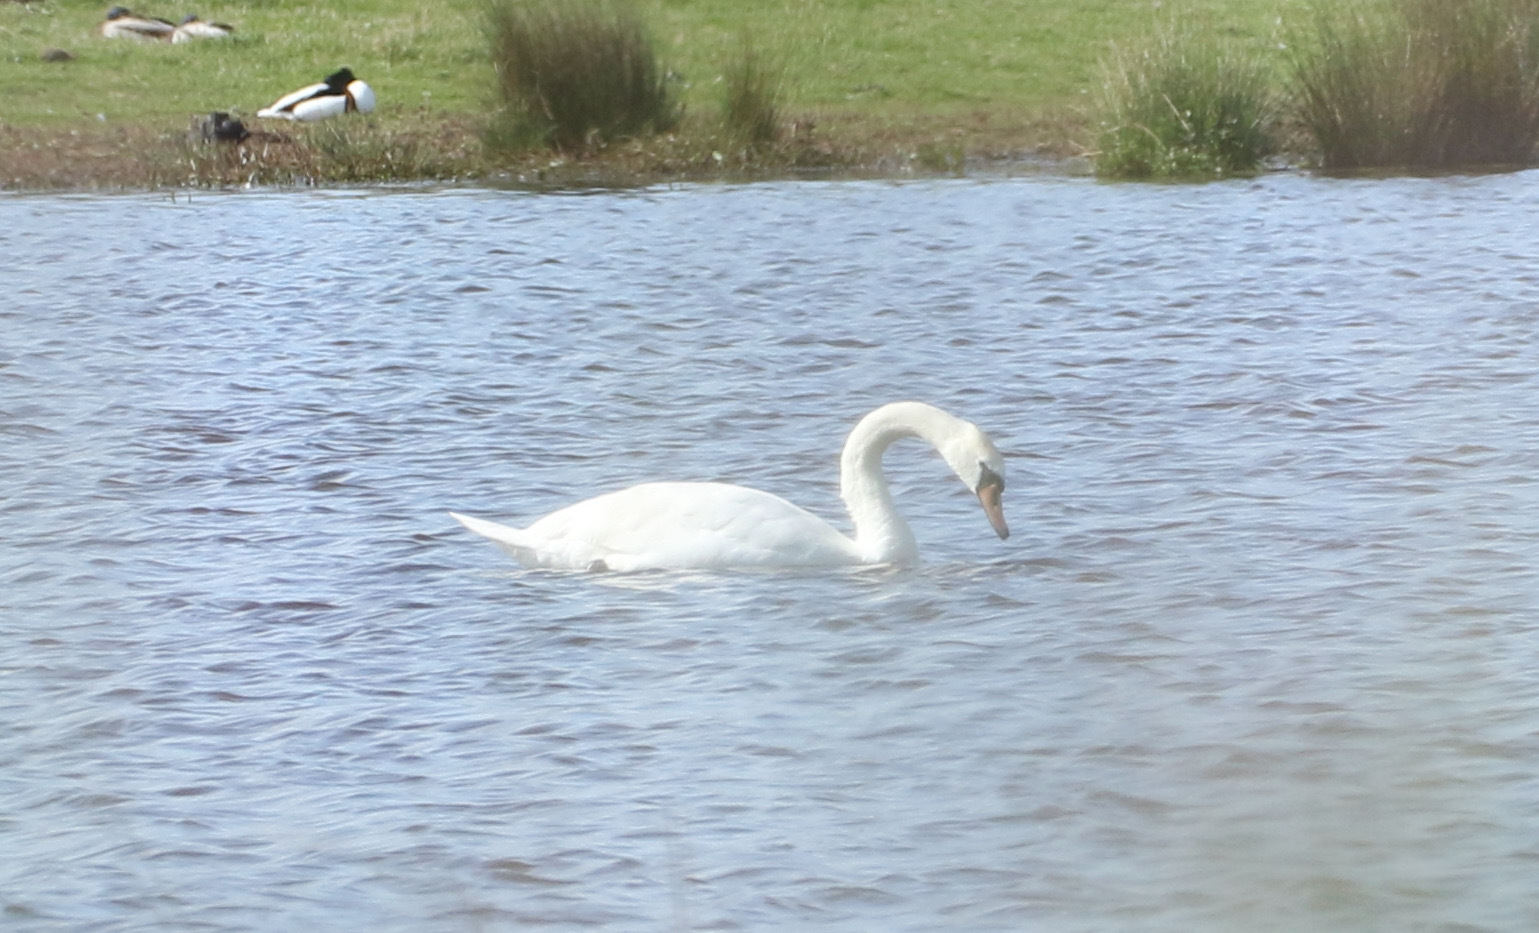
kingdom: Animalia
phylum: Chordata
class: Aves
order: Anseriformes
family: Anatidae
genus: Cygnus
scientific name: Cygnus olor
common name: Mute swan
